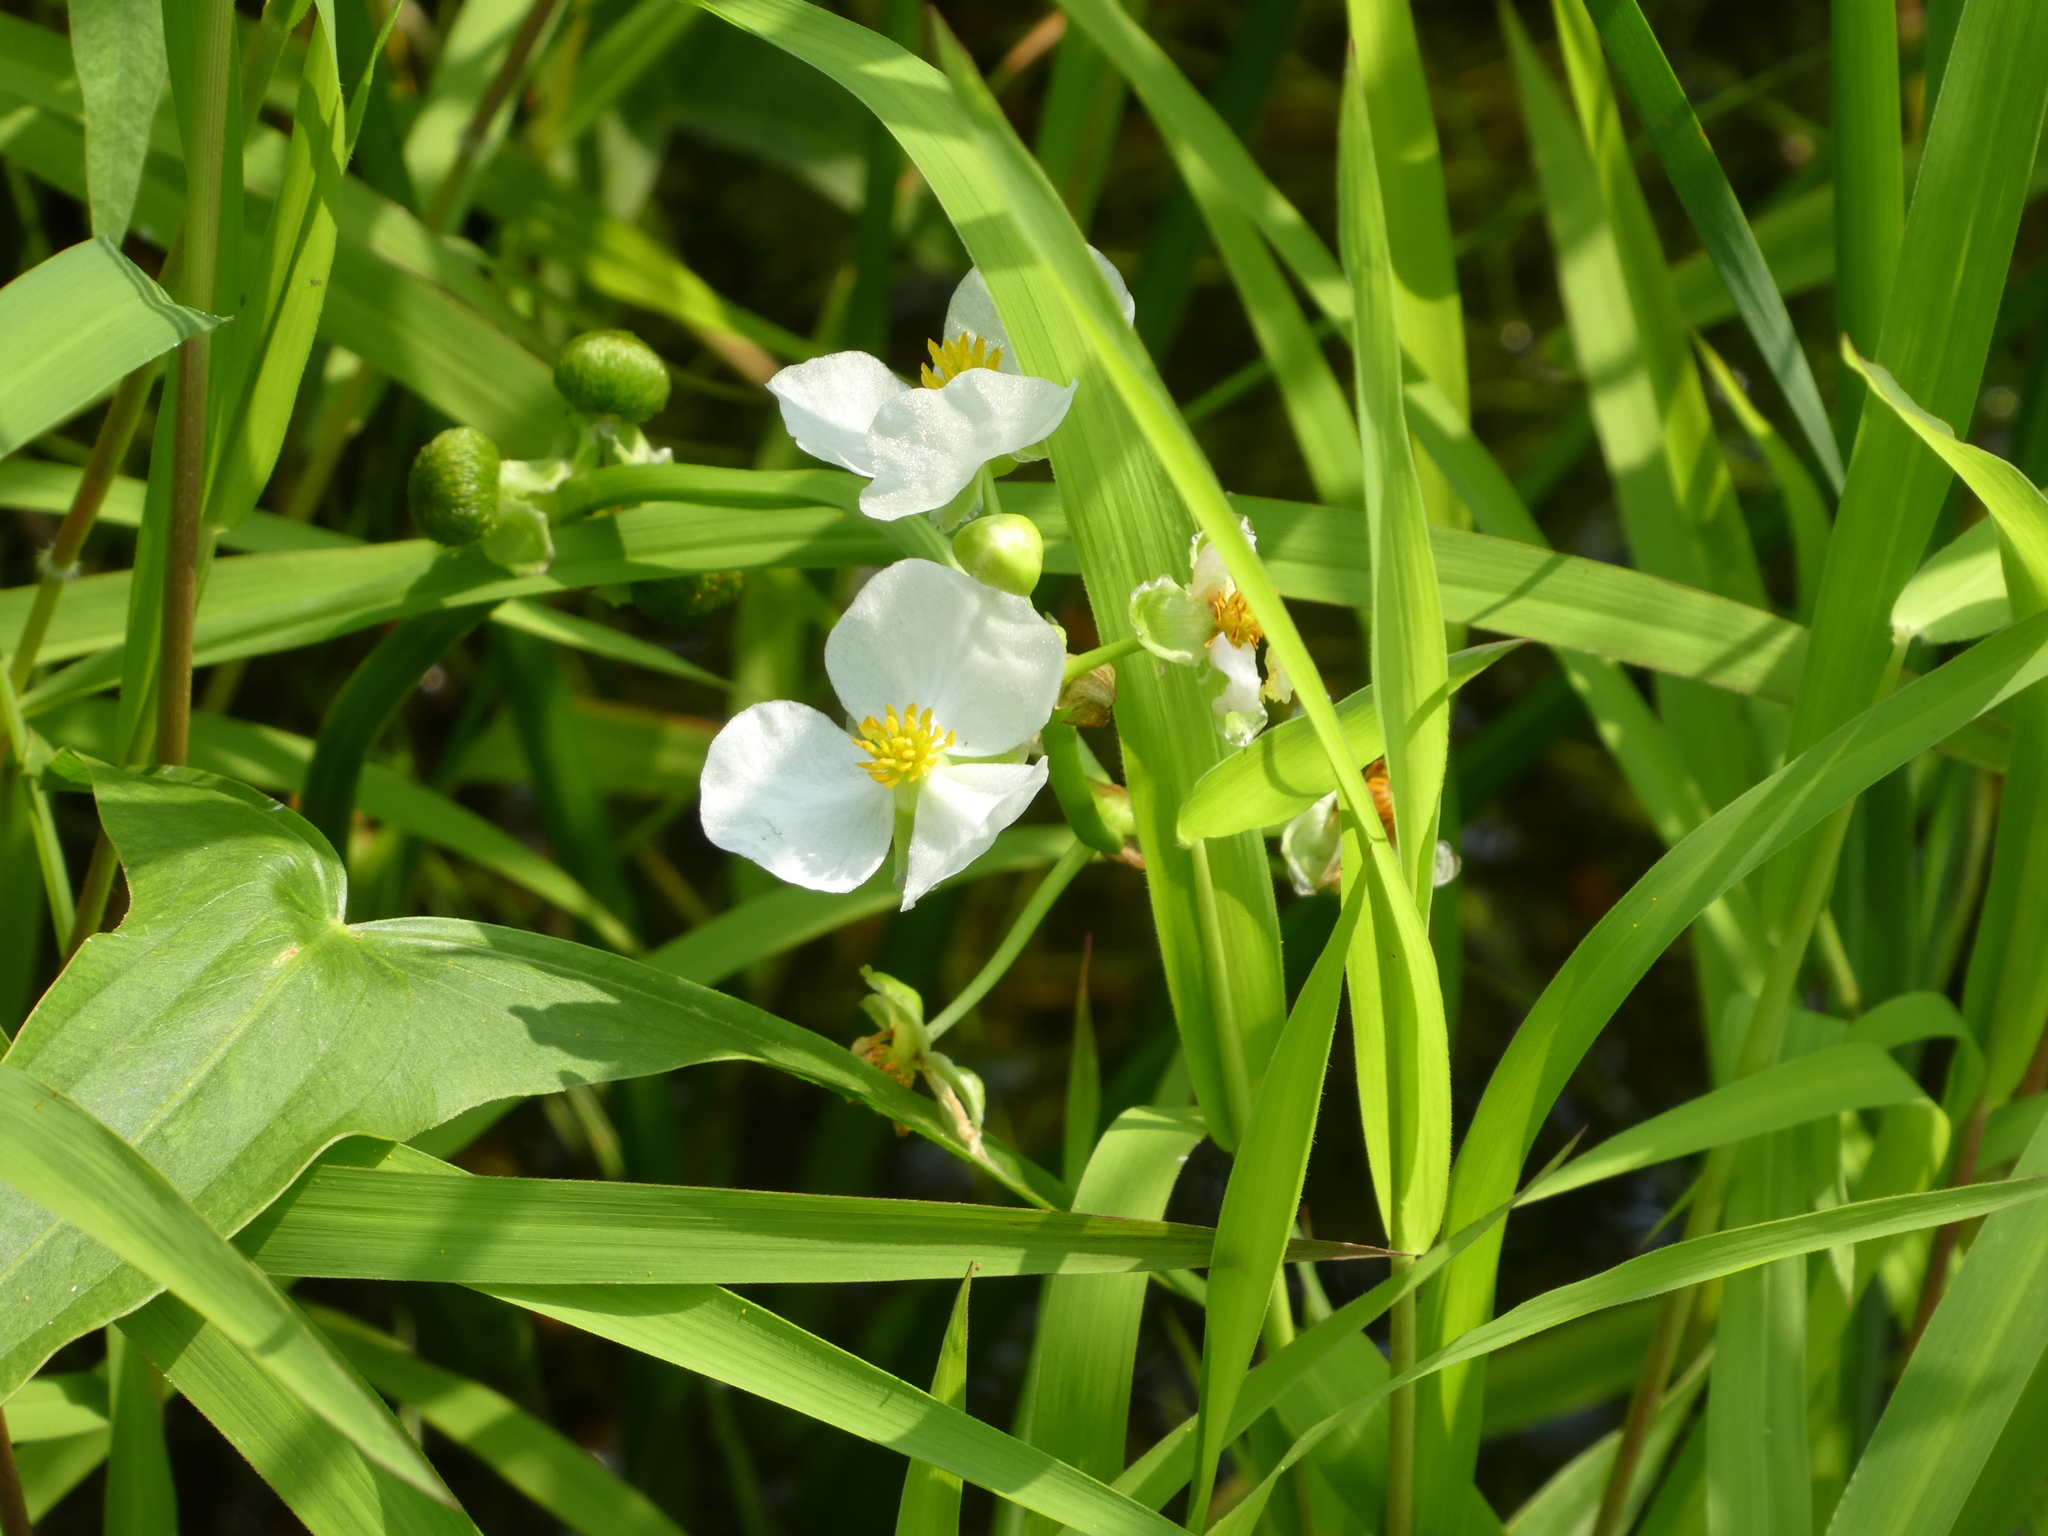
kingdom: Plantae
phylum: Tracheophyta
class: Liliopsida
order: Alismatales
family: Alismataceae
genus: Sagittaria
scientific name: Sagittaria latifolia
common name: Duck-potato
